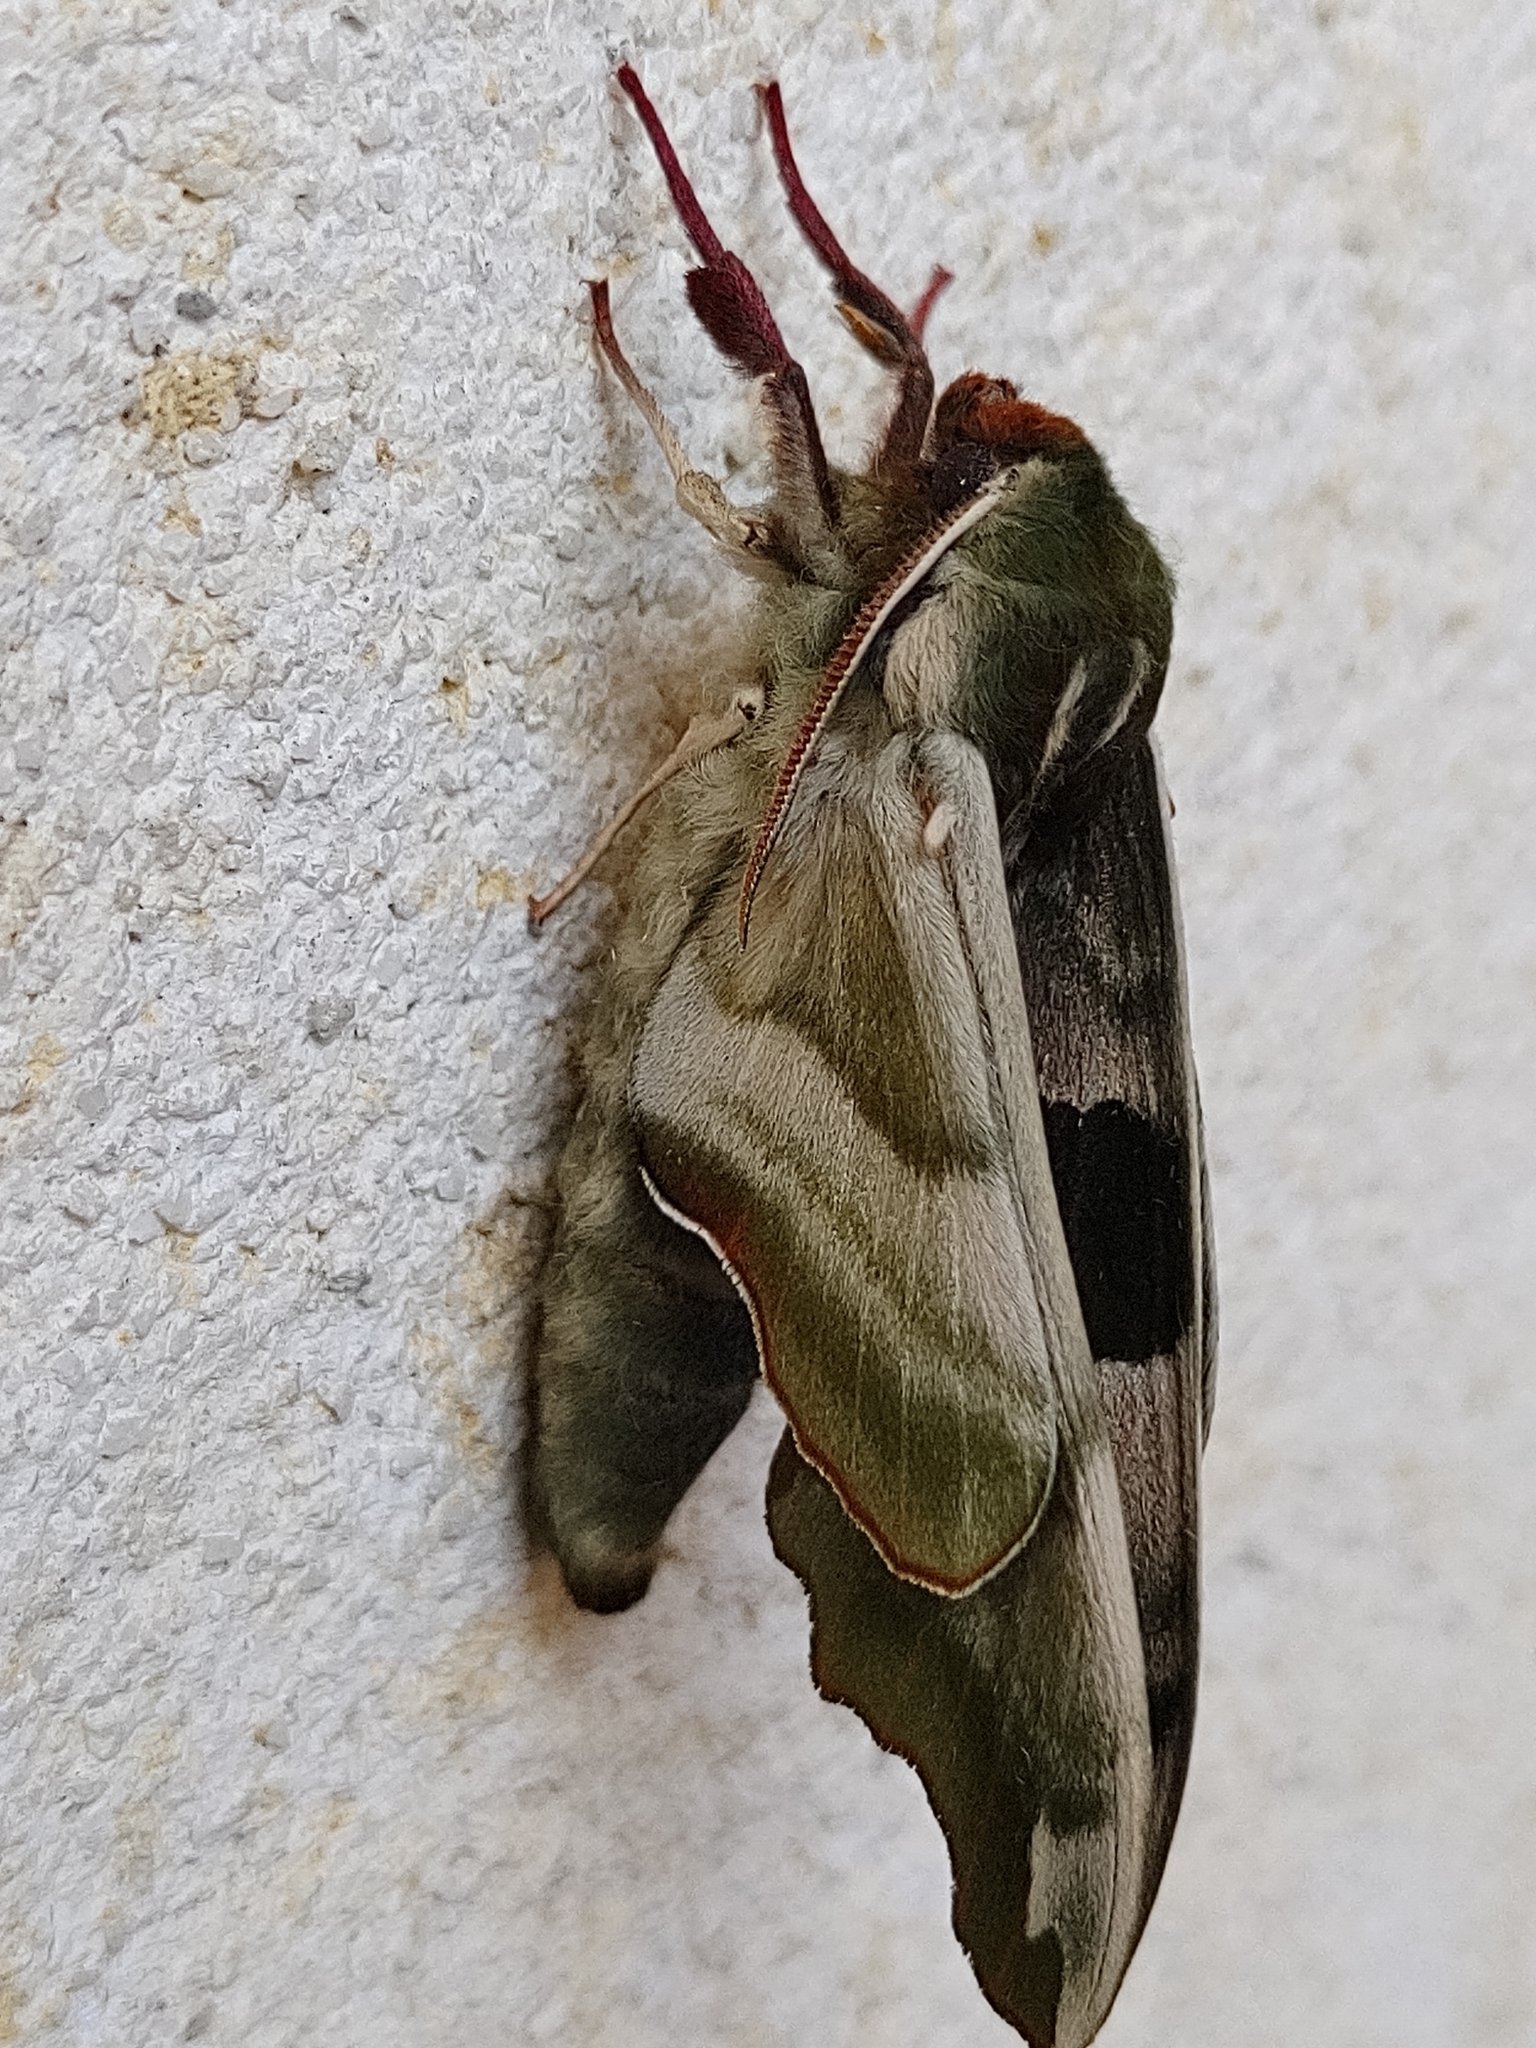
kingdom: Animalia
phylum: Arthropoda
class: Insecta
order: Lepidoptera
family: Sphingidae
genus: Mimas
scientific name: Mimas tiliae
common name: Lime hawk-moth
